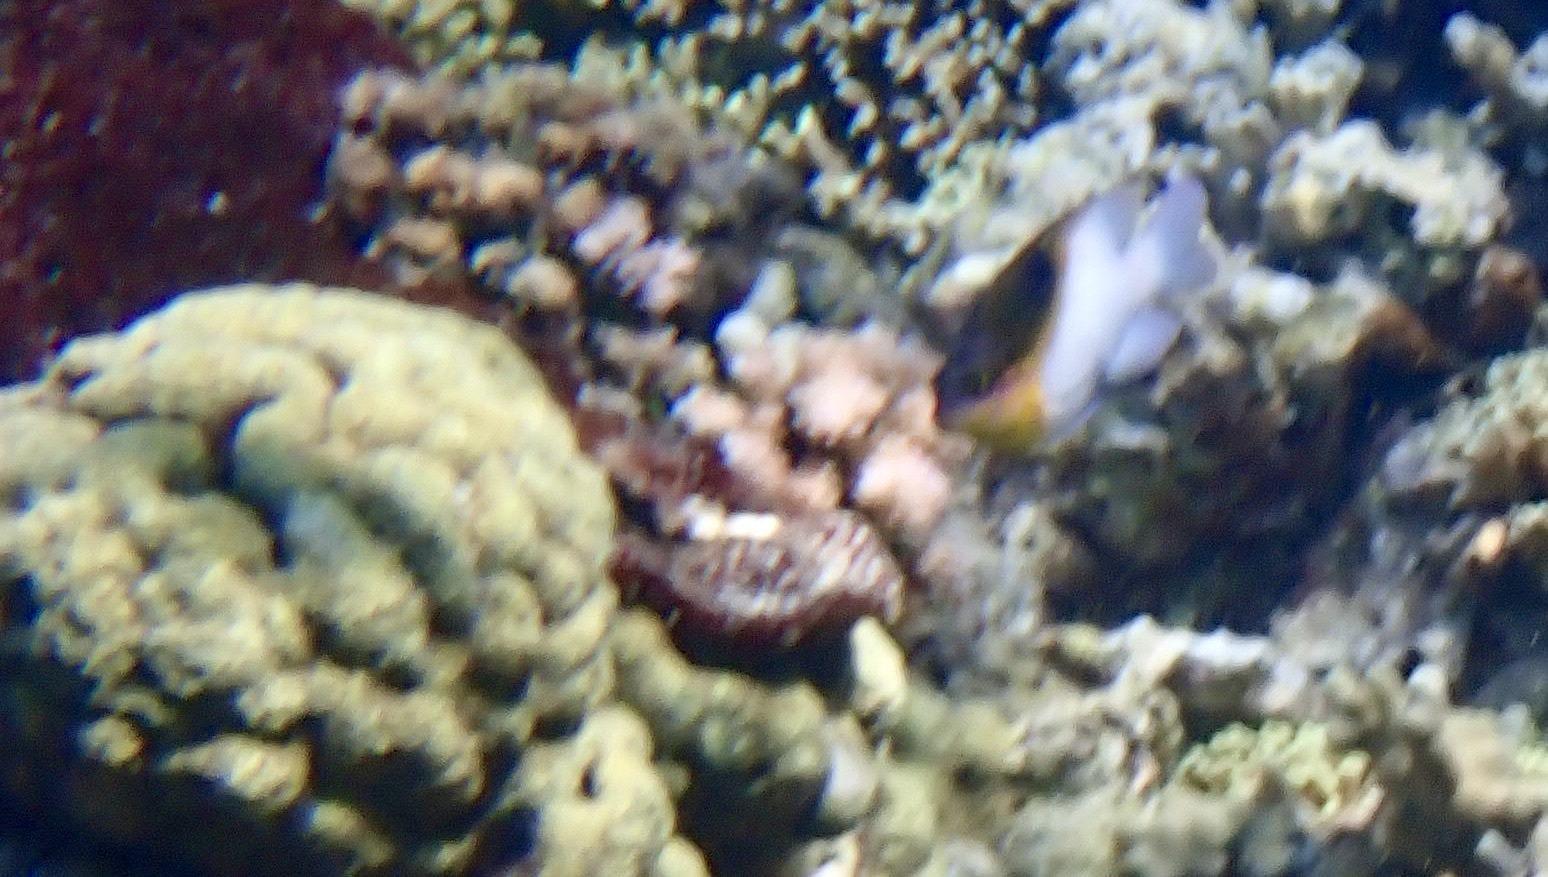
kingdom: Animalia
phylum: Chordata
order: Perciformes
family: Pomacentridae
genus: Dischistodus
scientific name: Dischistodus melanotus
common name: Black-vent damsel
